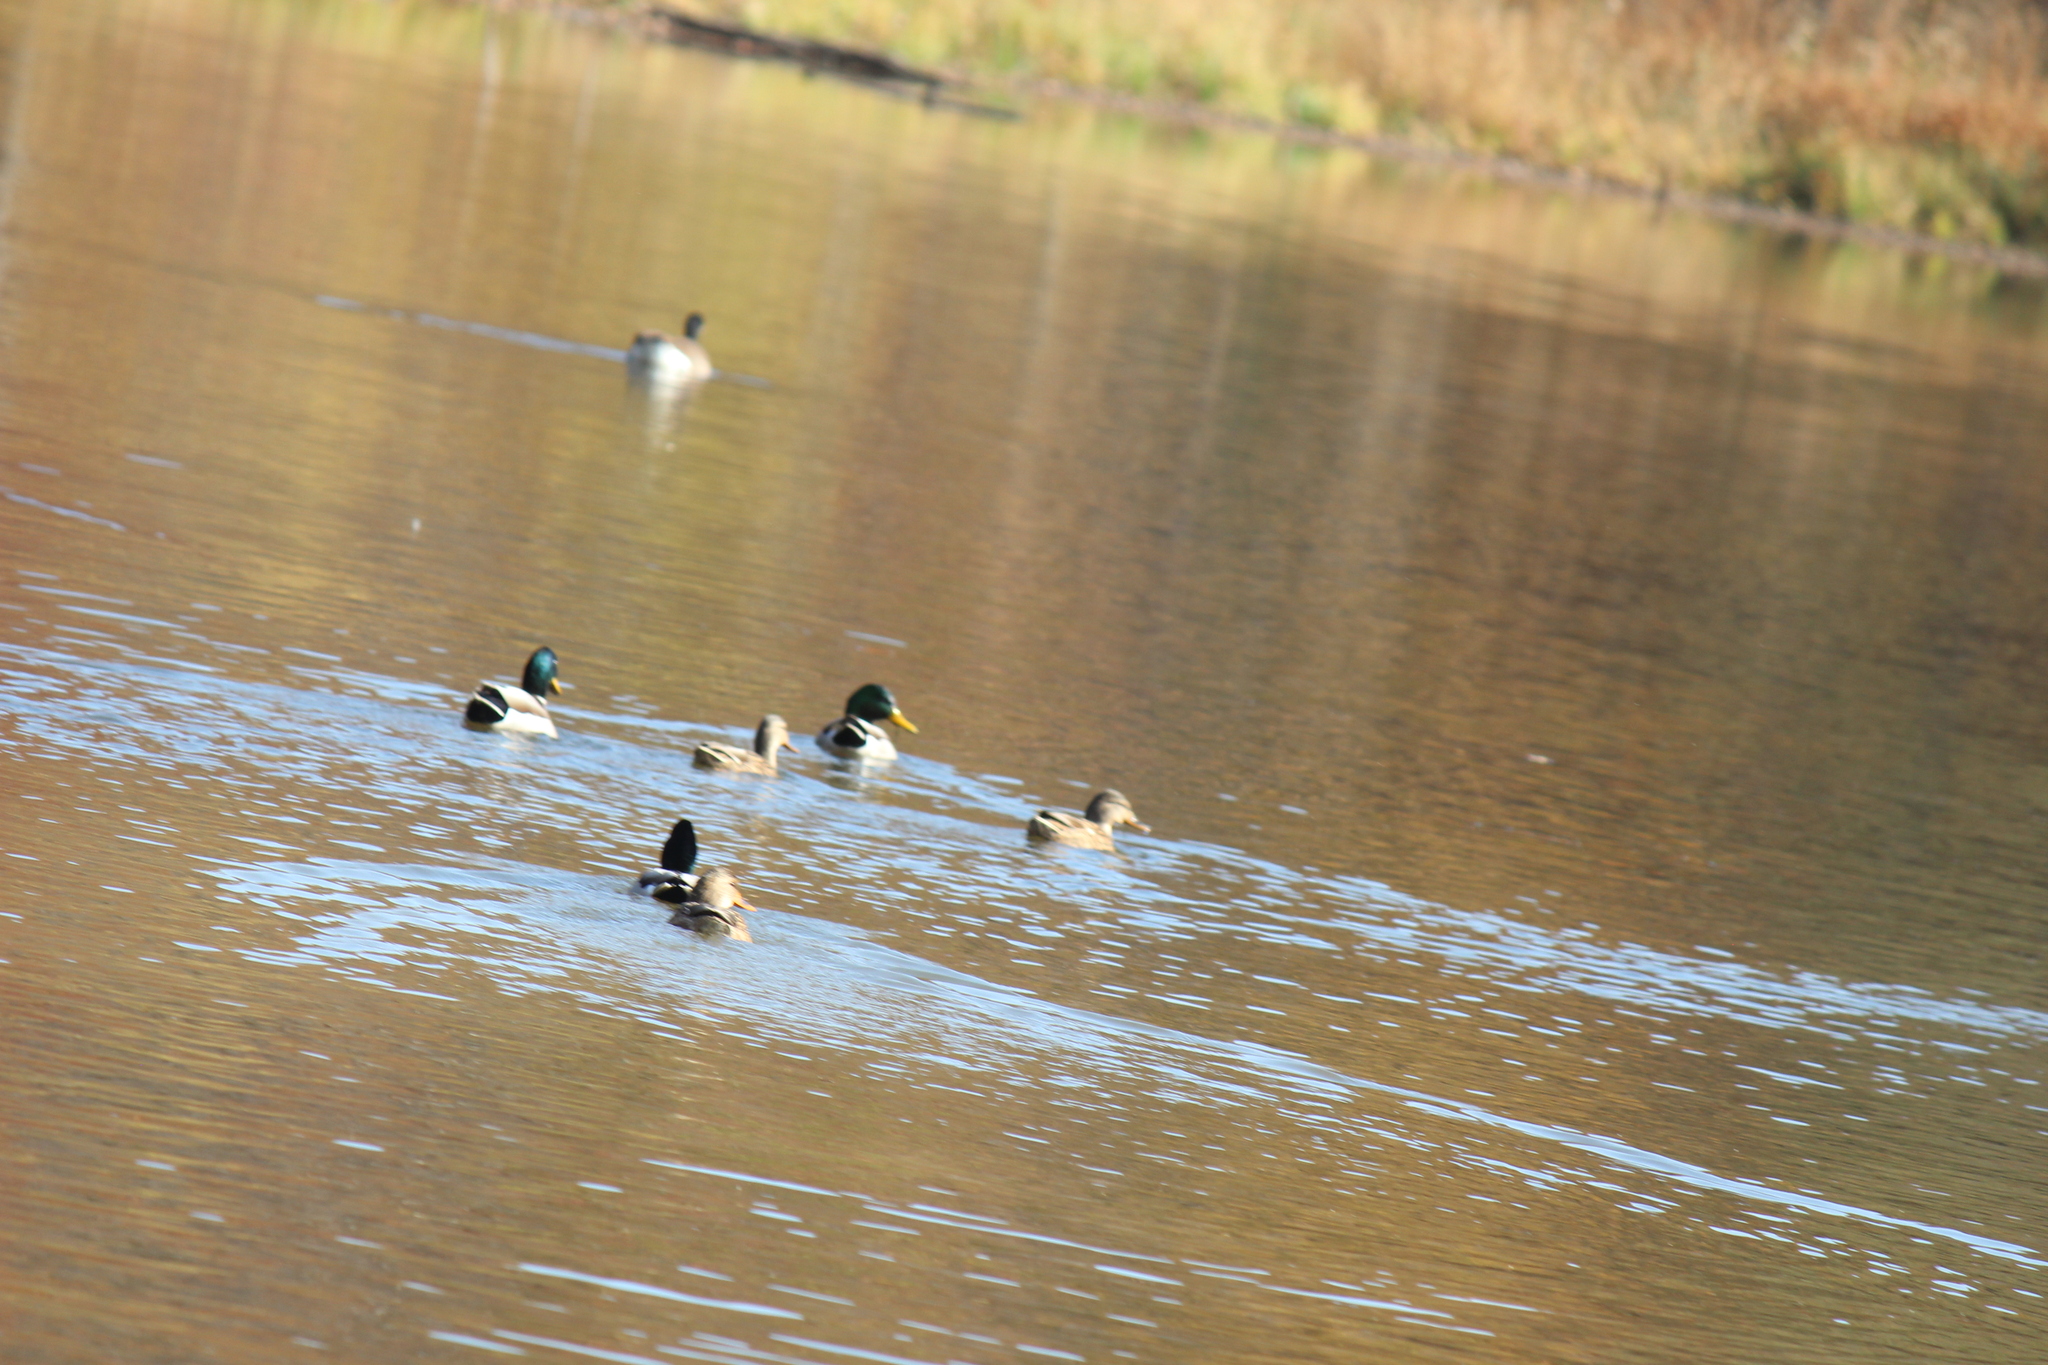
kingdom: Animalia
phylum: Chordata
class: Aves
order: Anseriformes
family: Anatidae
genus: Anas
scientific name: Anas platyrhynchos
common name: Mallard
